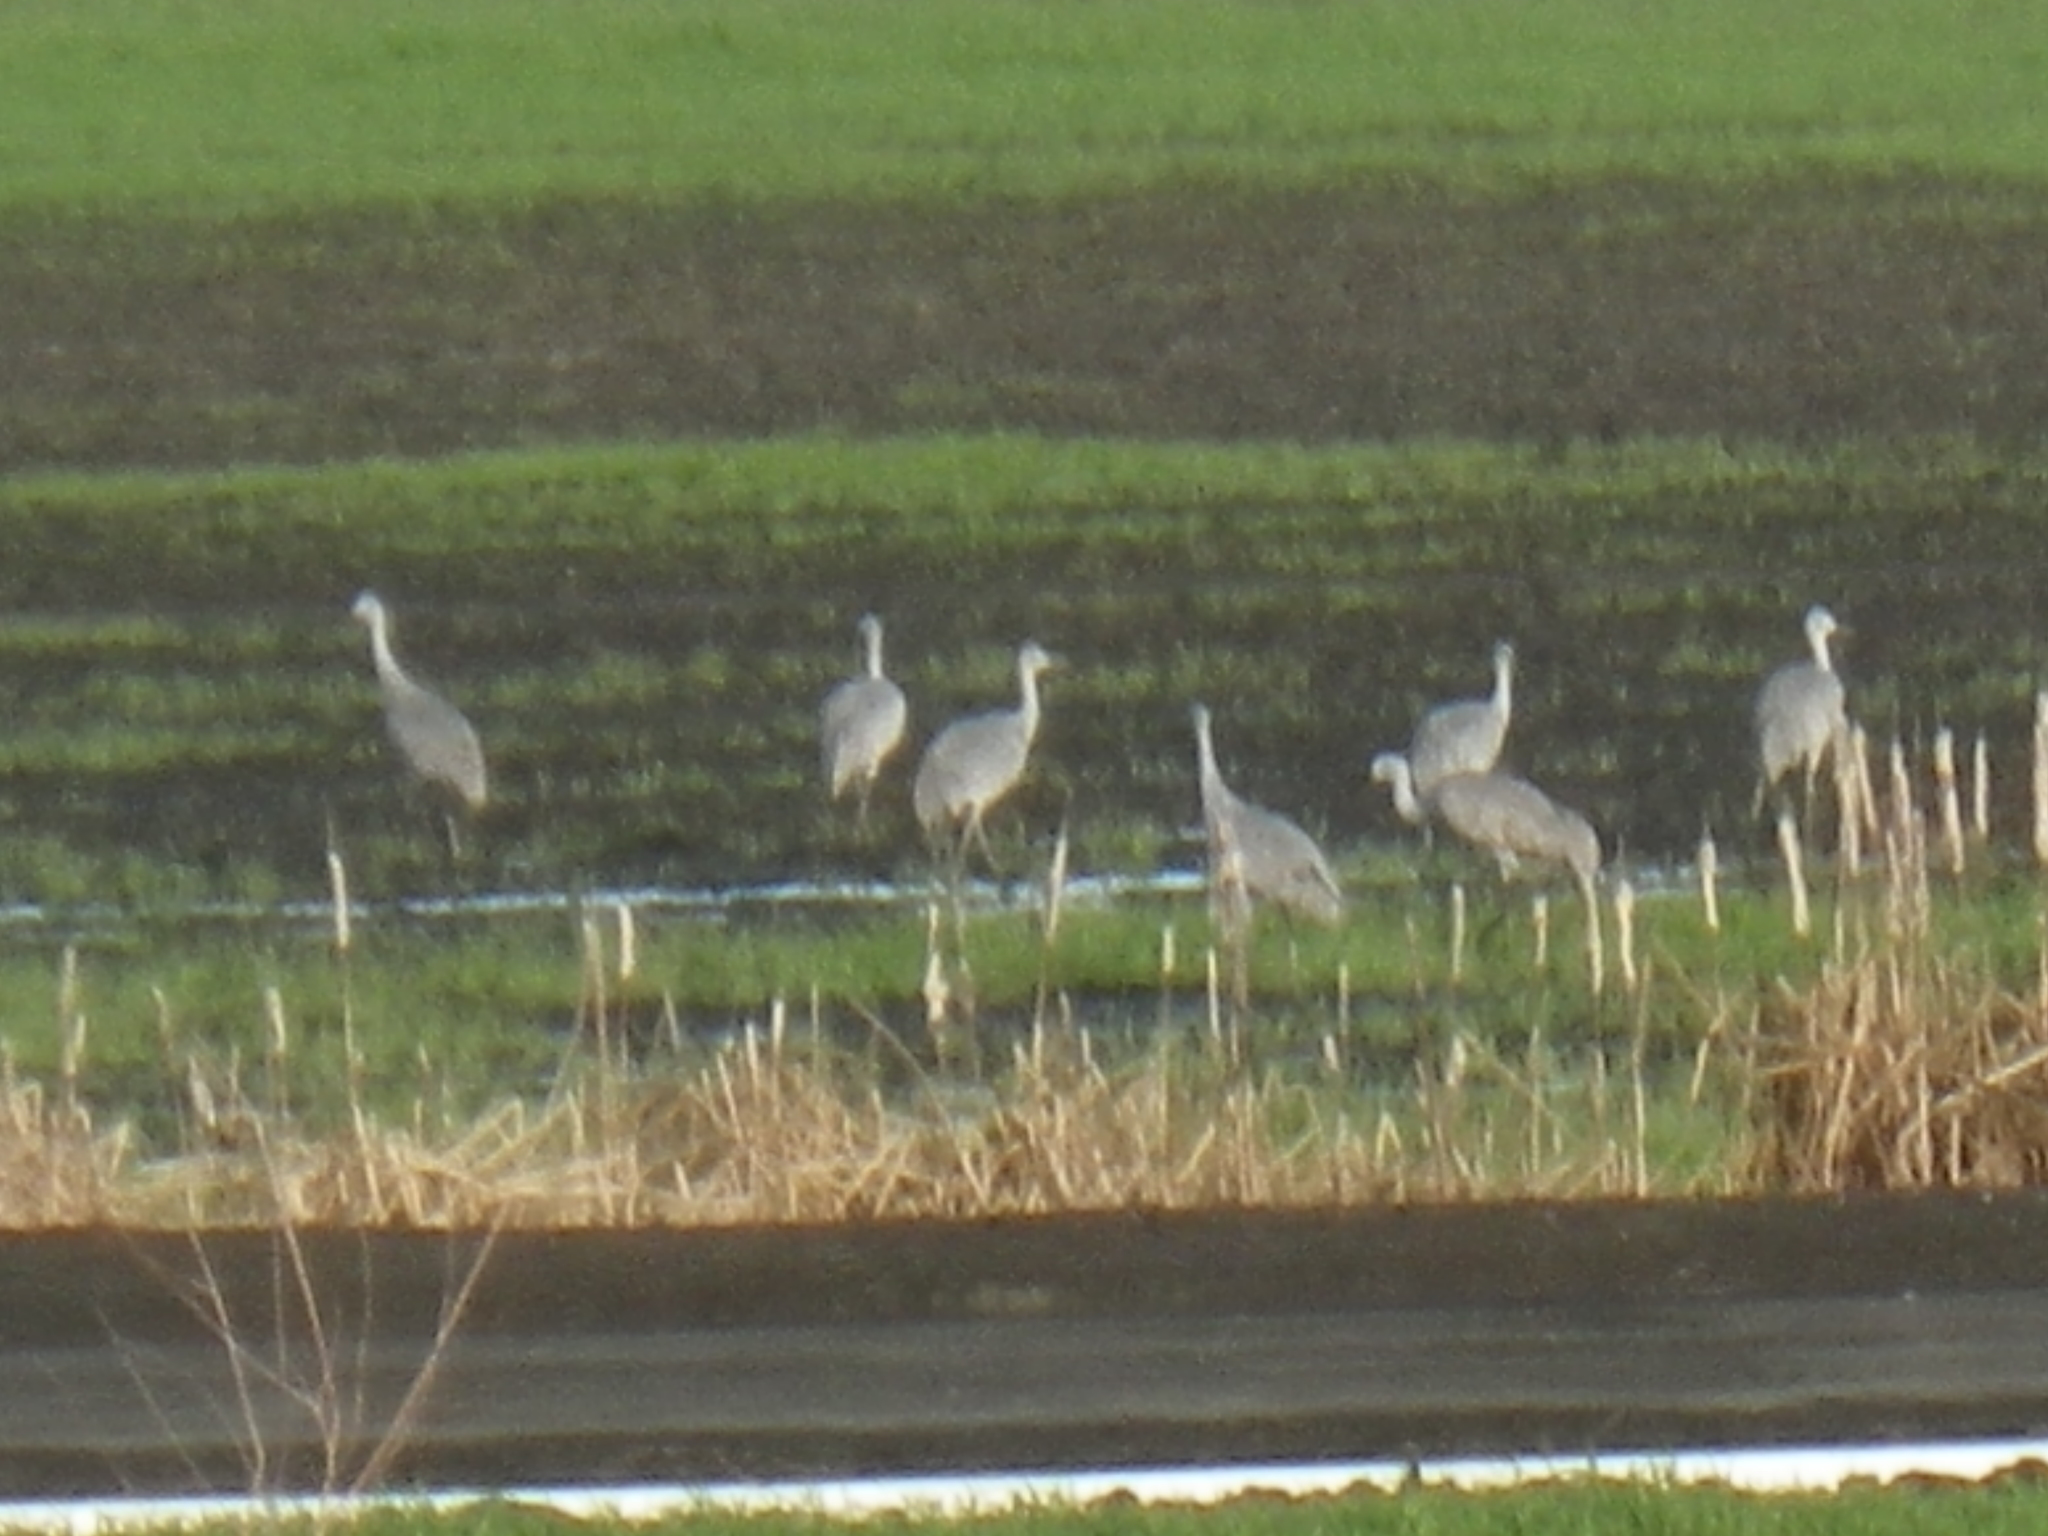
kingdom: Animalia
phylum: Chordata
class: Aves
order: Gruiformes
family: Gruidae
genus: Grus
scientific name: Grus canadensis
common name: Sandhill crane
